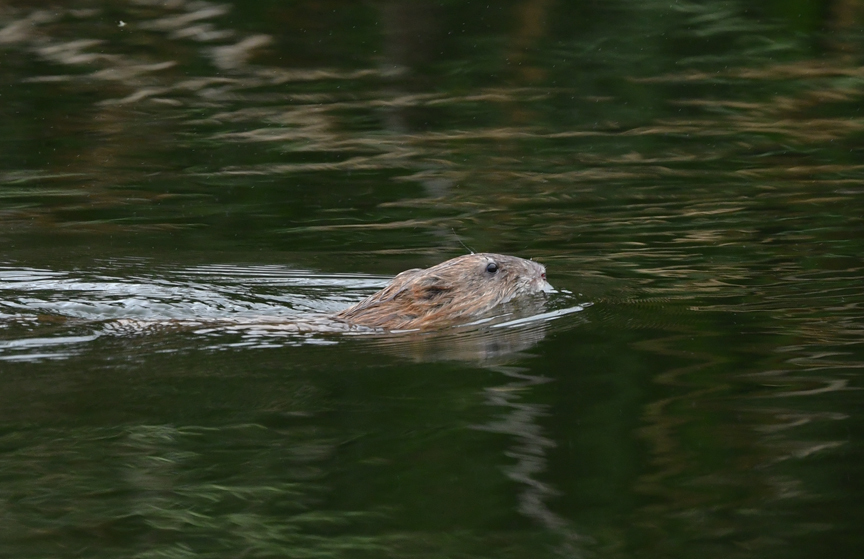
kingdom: Animalia
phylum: Chordata
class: Mammalia
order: Rodentia
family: Cricetidae
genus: Ondatra
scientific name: Ondatra zibethicus
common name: Muskrat
